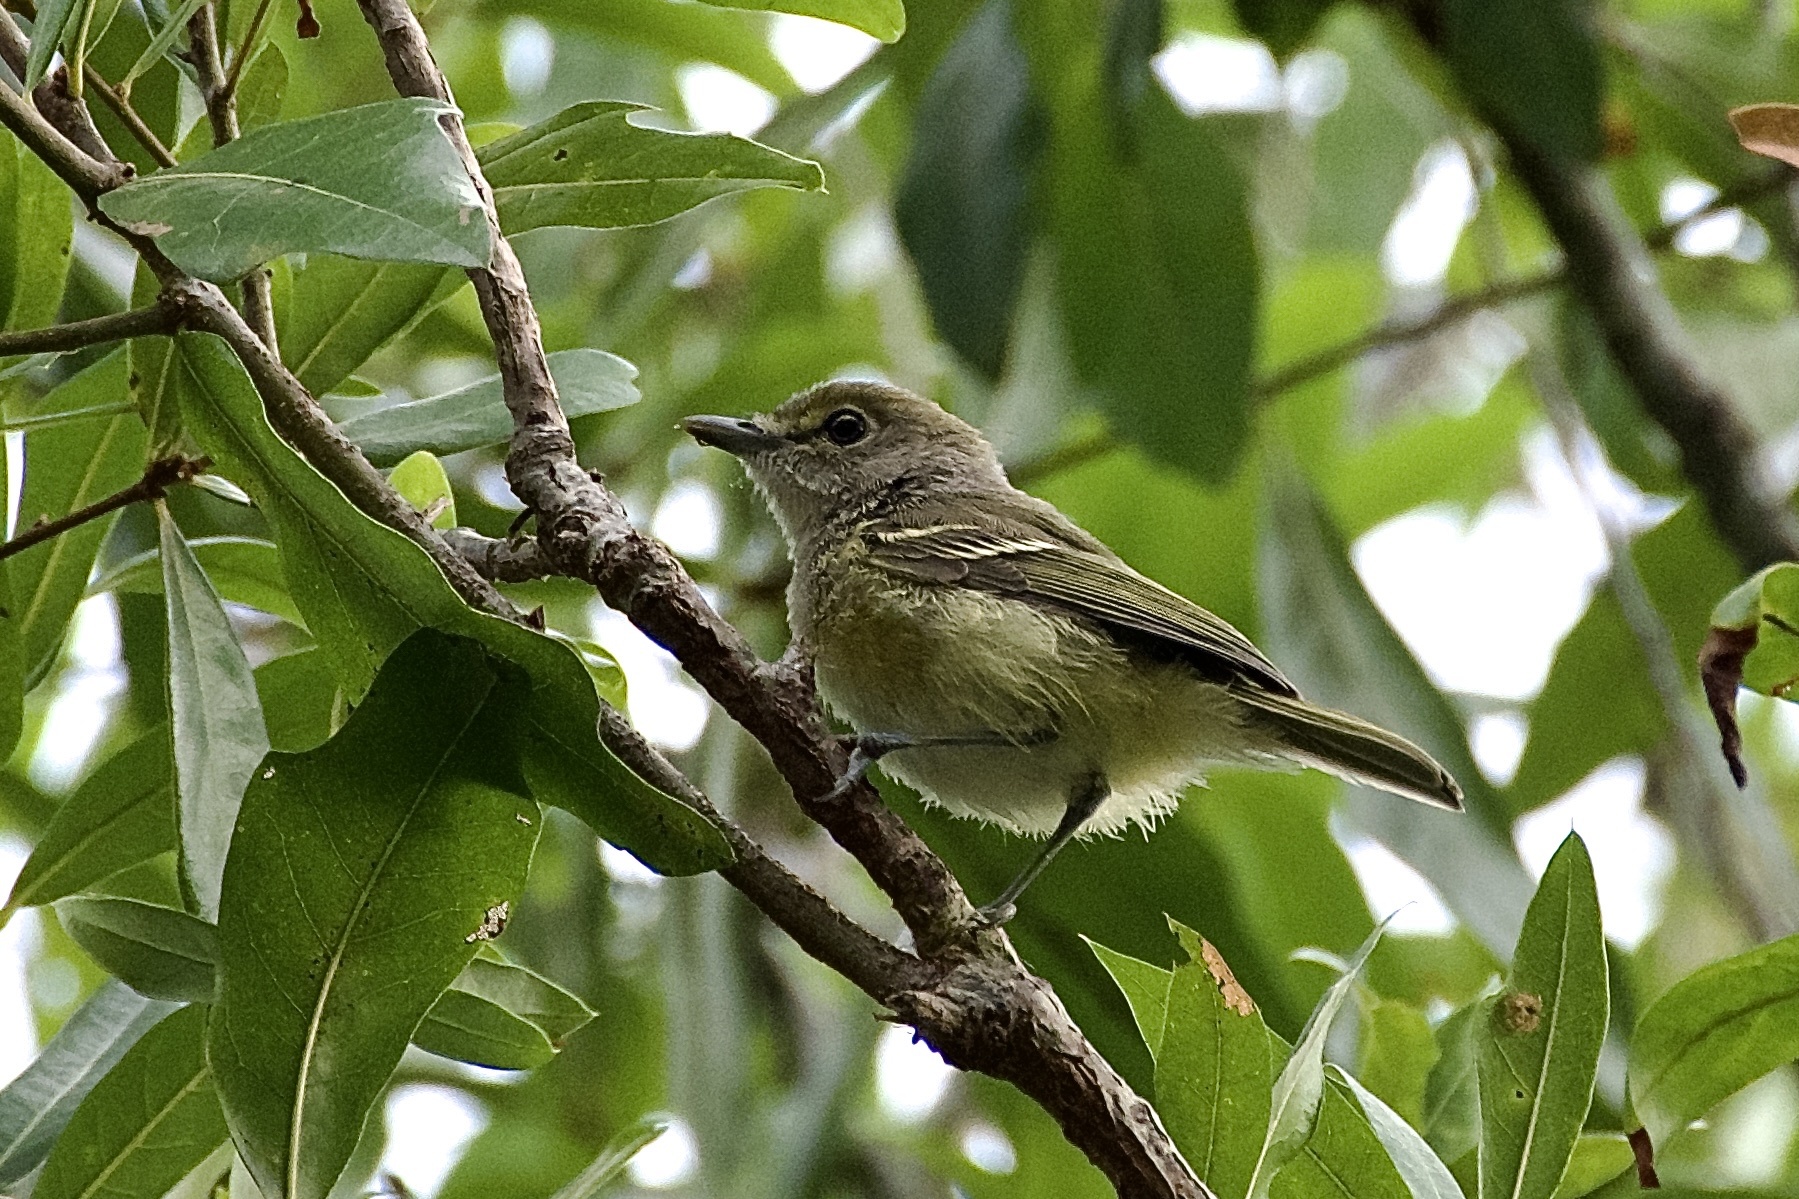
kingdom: Animalia
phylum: Chordata
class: Aves
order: Passeriformes
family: Vireonidae
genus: Vireo
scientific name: Vireo griseus
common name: White-eyed vireo
